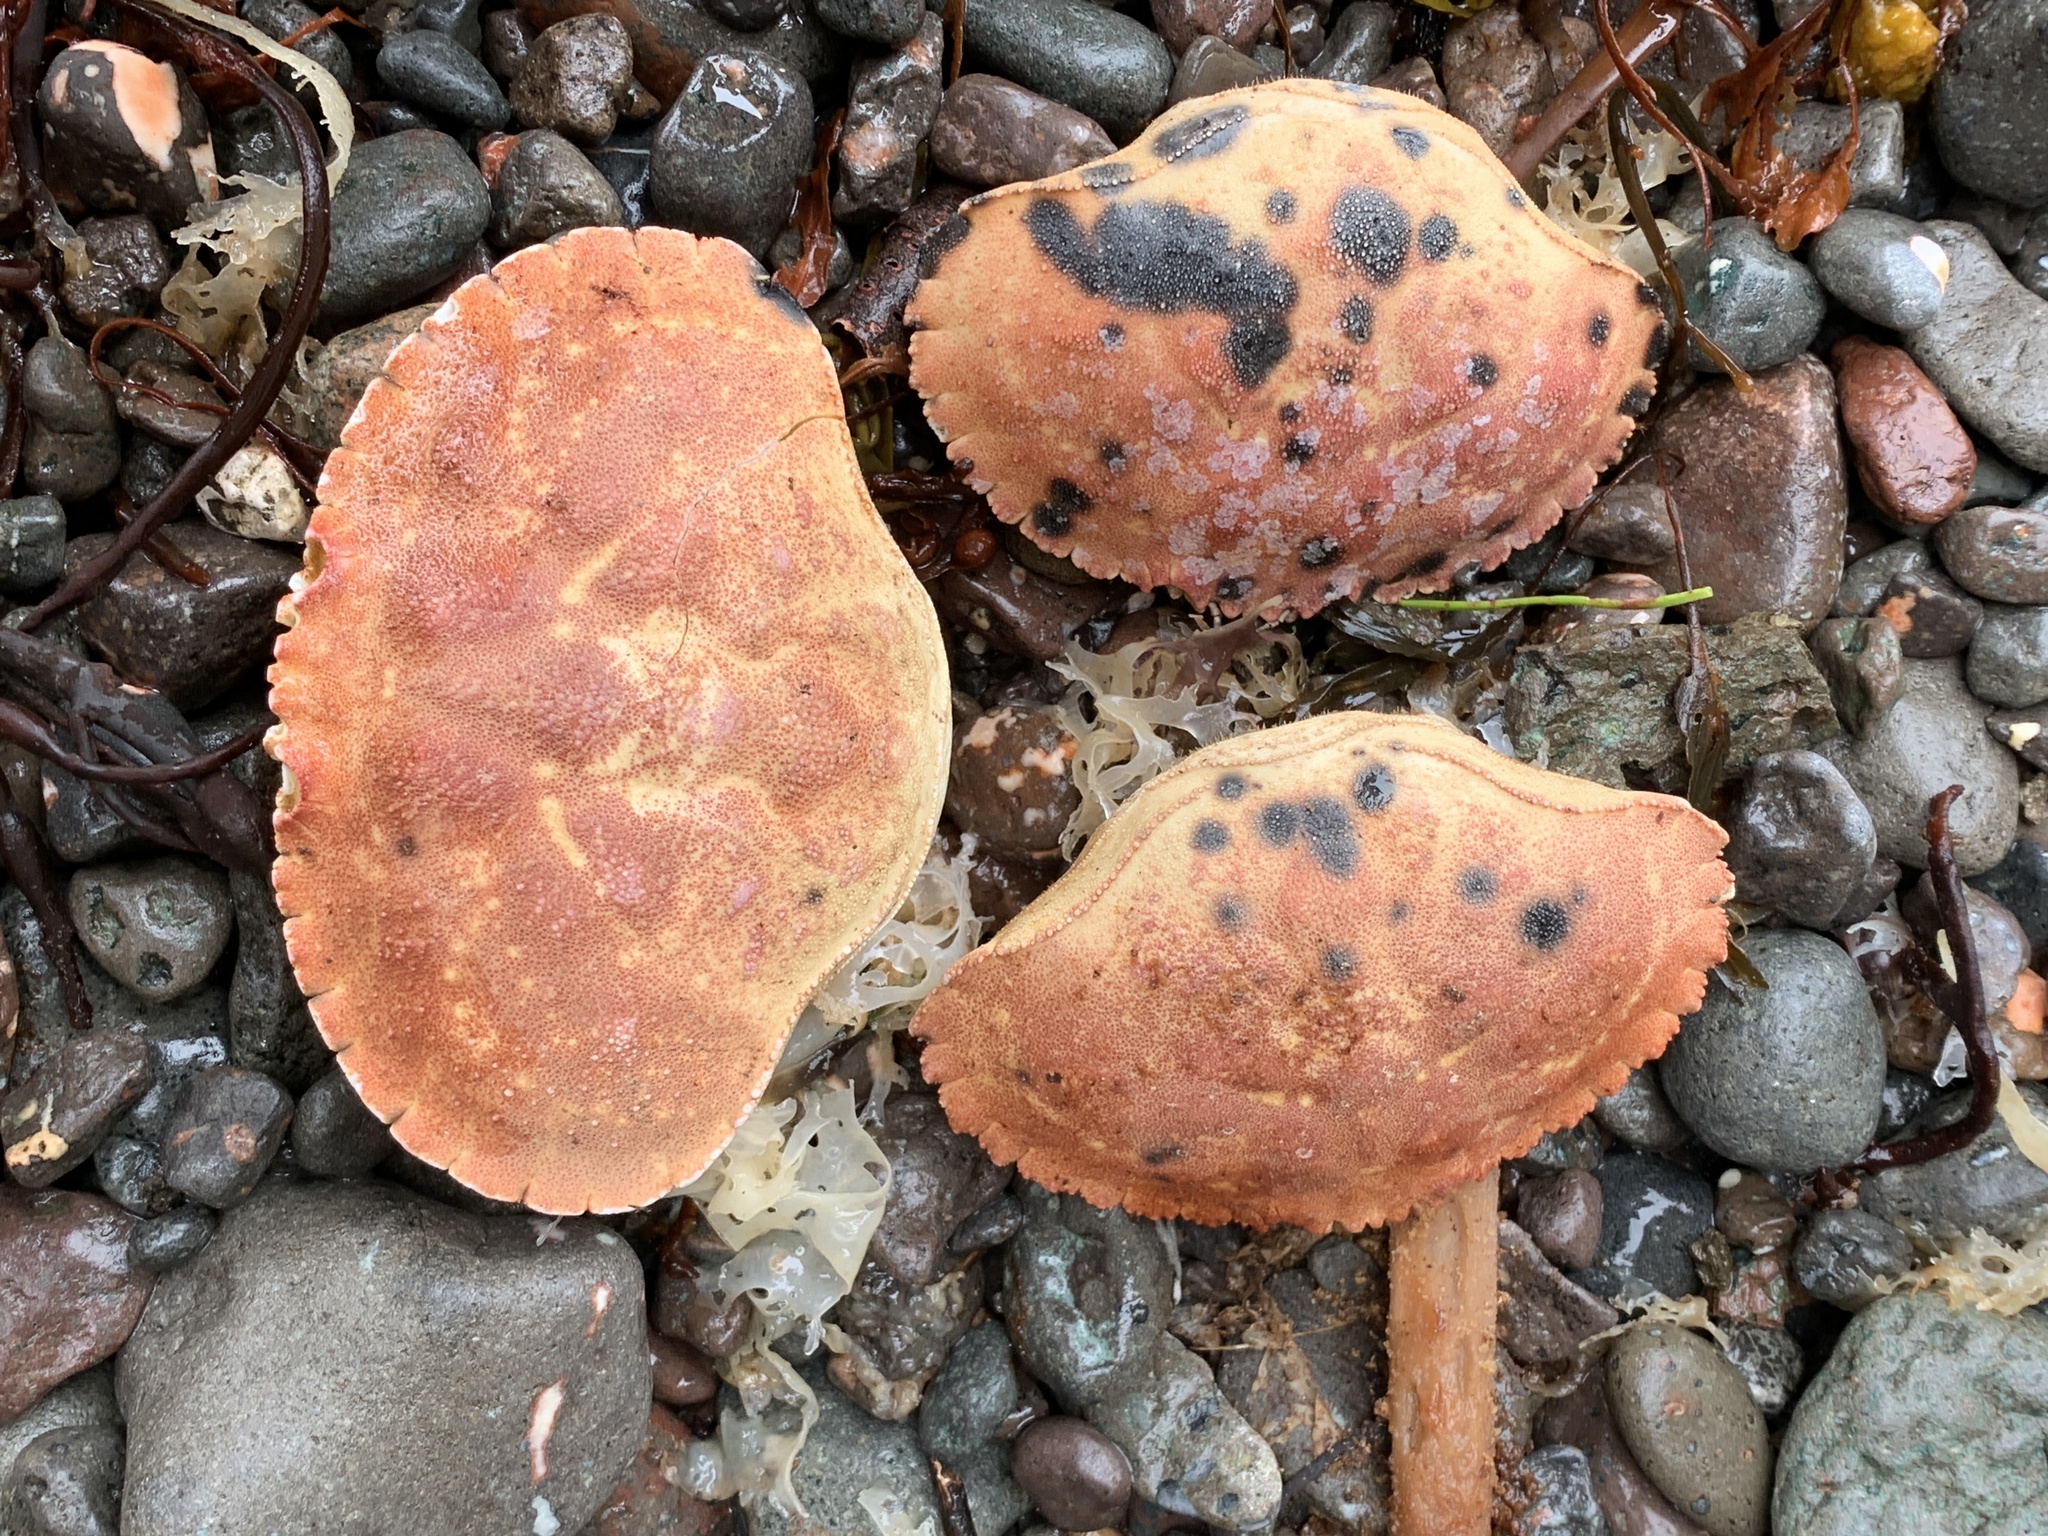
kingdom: Animalia
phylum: Arthropoda
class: Malacostraca
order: Decapoda
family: Cancridae
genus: Cancer
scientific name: Cancer borealis
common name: Jonah crab
